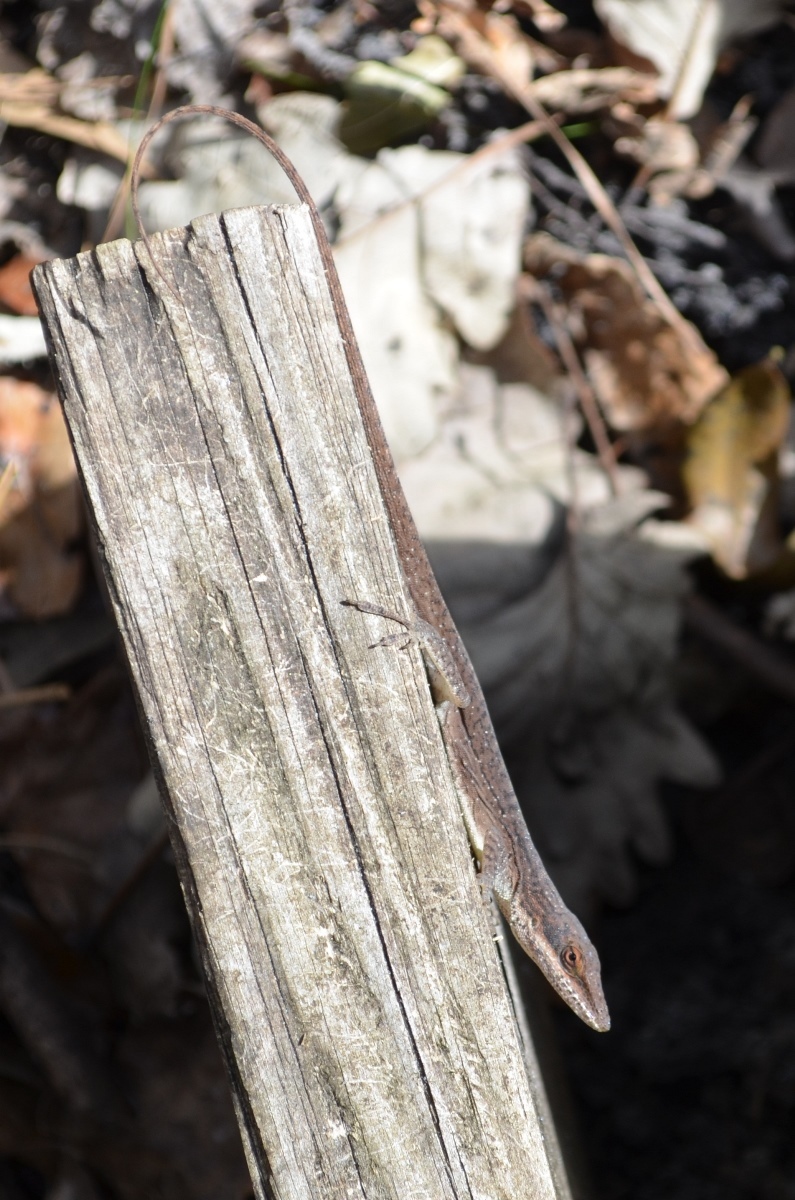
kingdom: Animalia
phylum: Chordata
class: Squamata
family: Dactyloidae
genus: Anolis
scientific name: Anolis carolinensis
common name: Green anole
